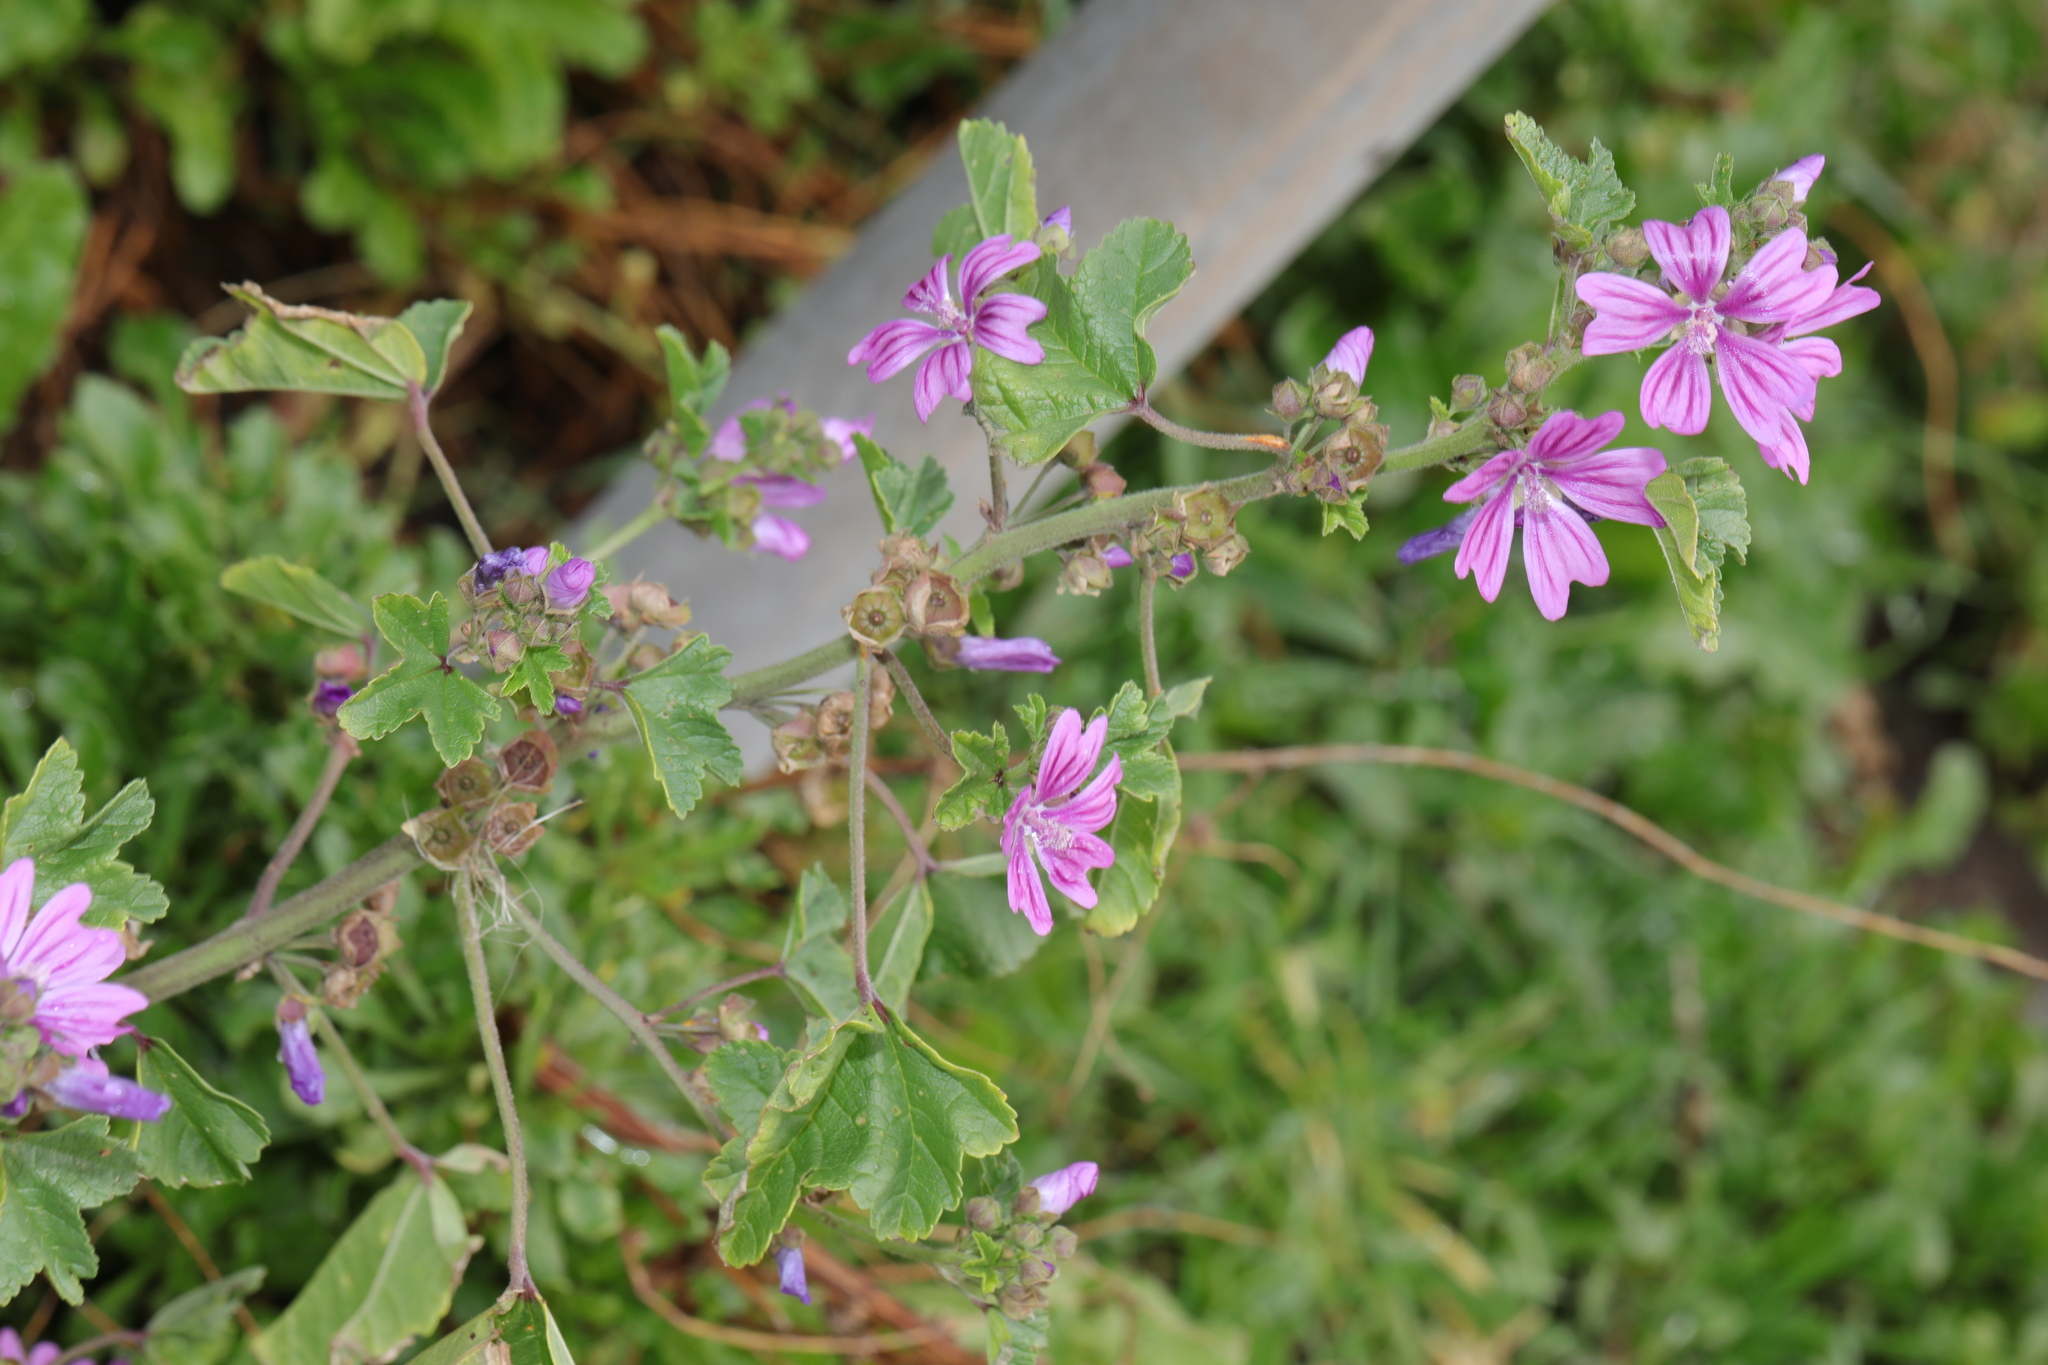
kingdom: Plantae
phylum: Tracheophyta
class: Magnoliopsida
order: Malvales
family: Malvaceae
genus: Malva
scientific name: Malva sylvestris
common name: Common mallow
